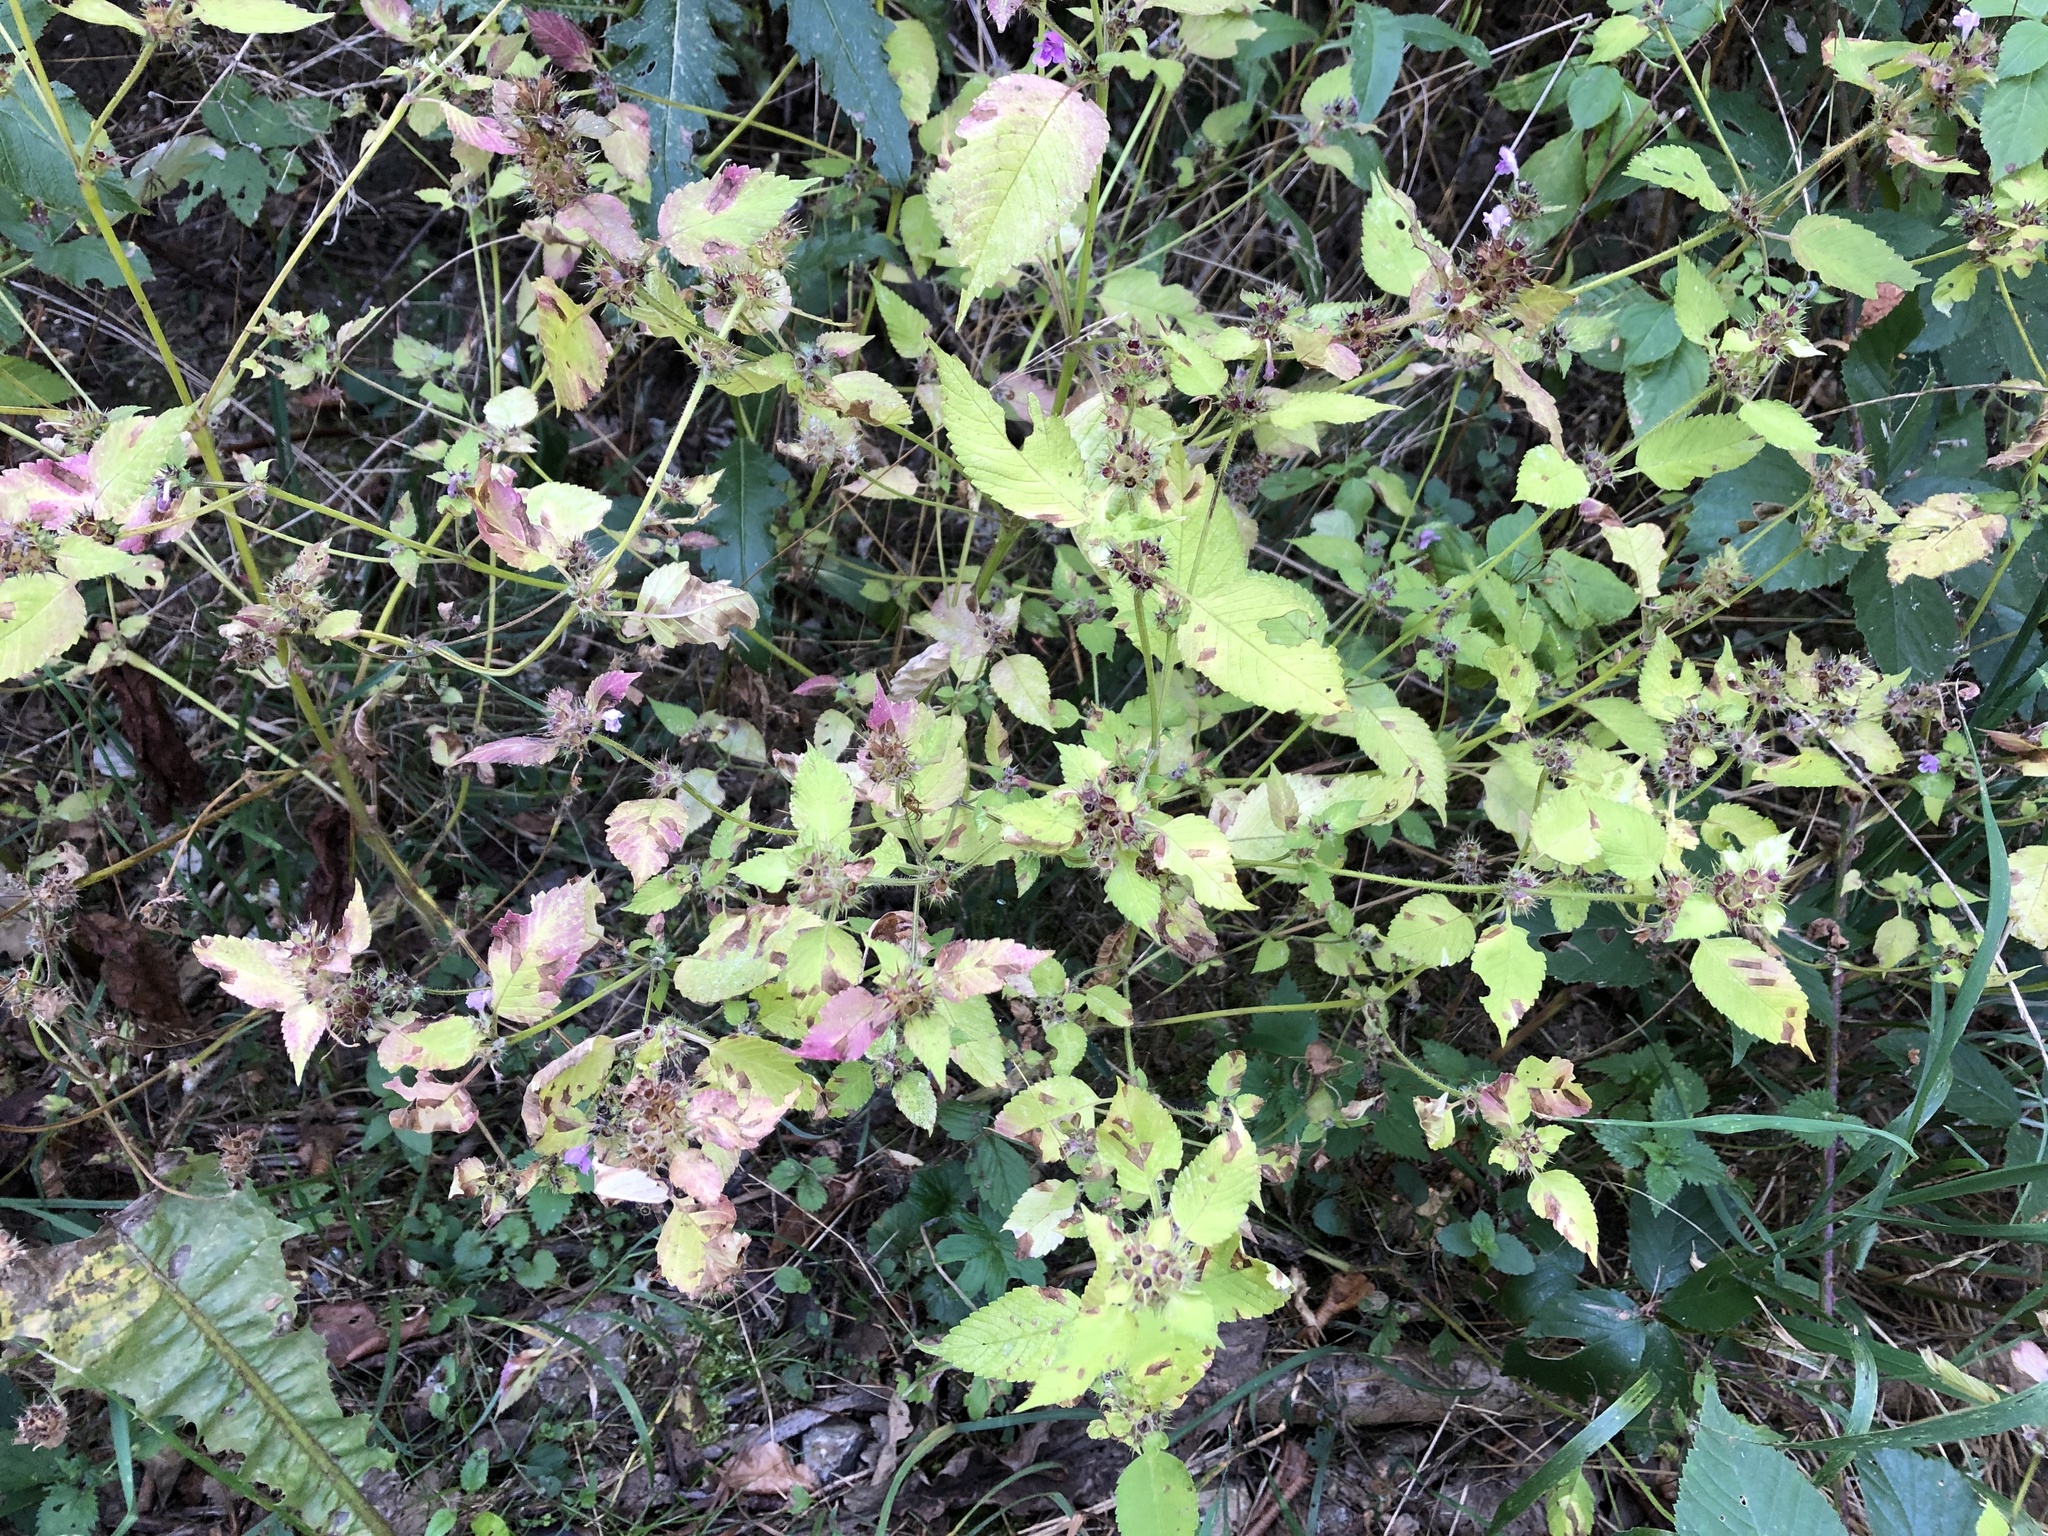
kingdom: Plantae
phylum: Tracheophyta
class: Magnoliopsida
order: Lamiales
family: Lamiaceae
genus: Galeopsis
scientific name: Galeopsis tetrahit
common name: Common hemp-nettle
